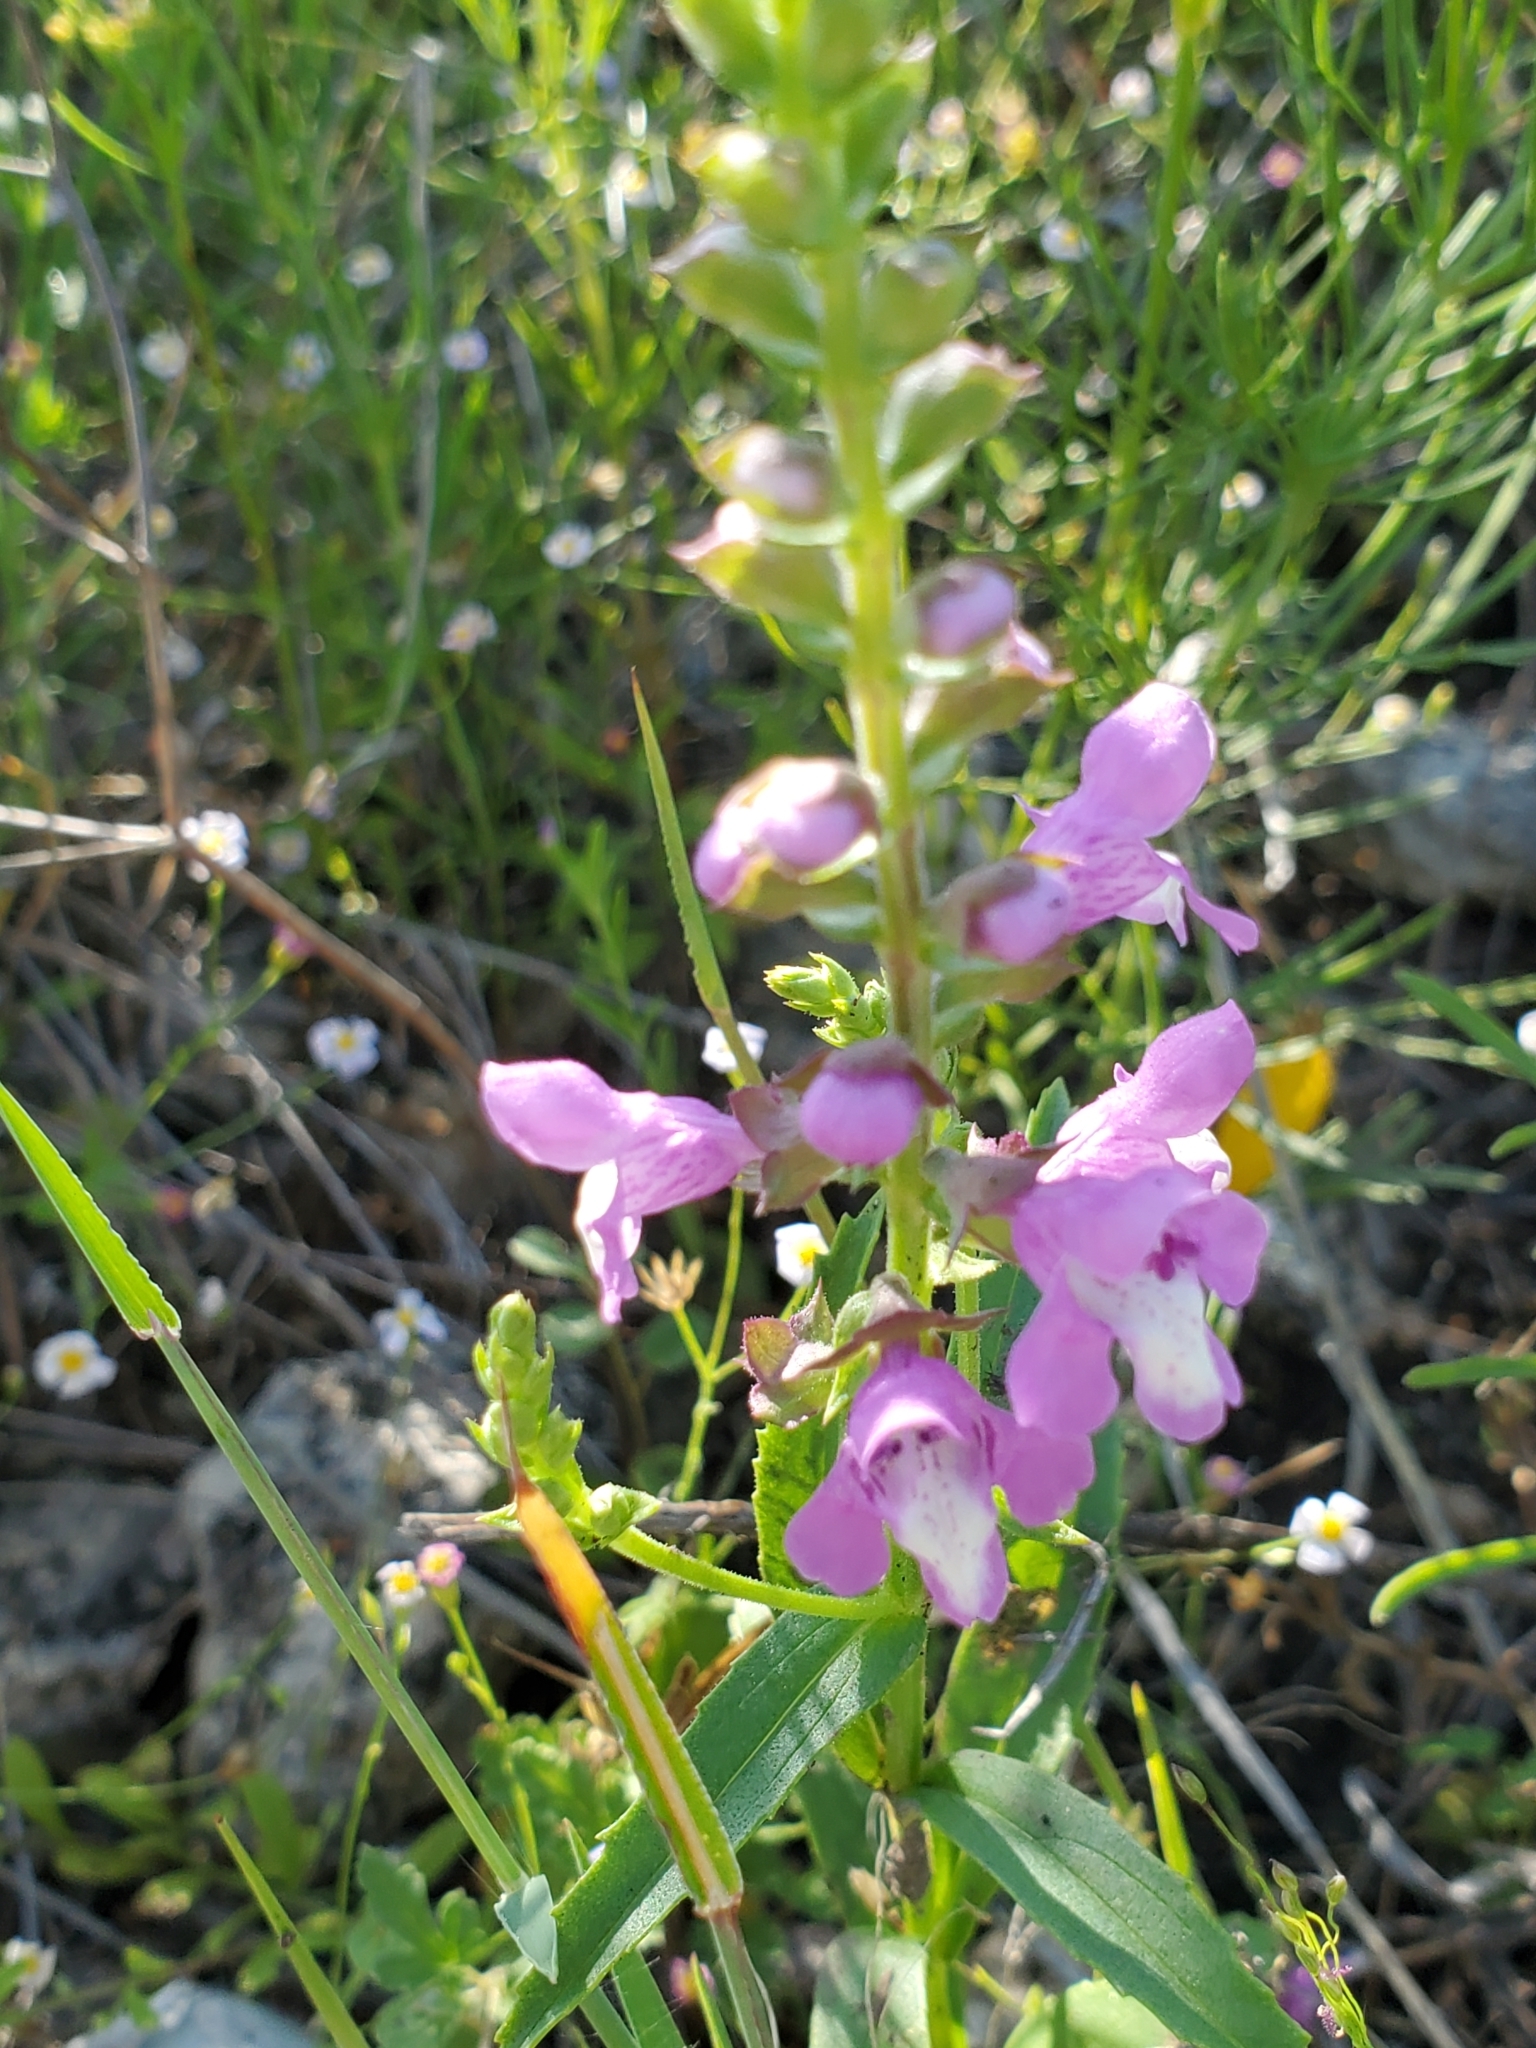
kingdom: Plantae
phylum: Tracheophyta
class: Magnoliopsida
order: Lamiales
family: Lamiaceae
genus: Warnockia
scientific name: Warnockia scutellarioides
